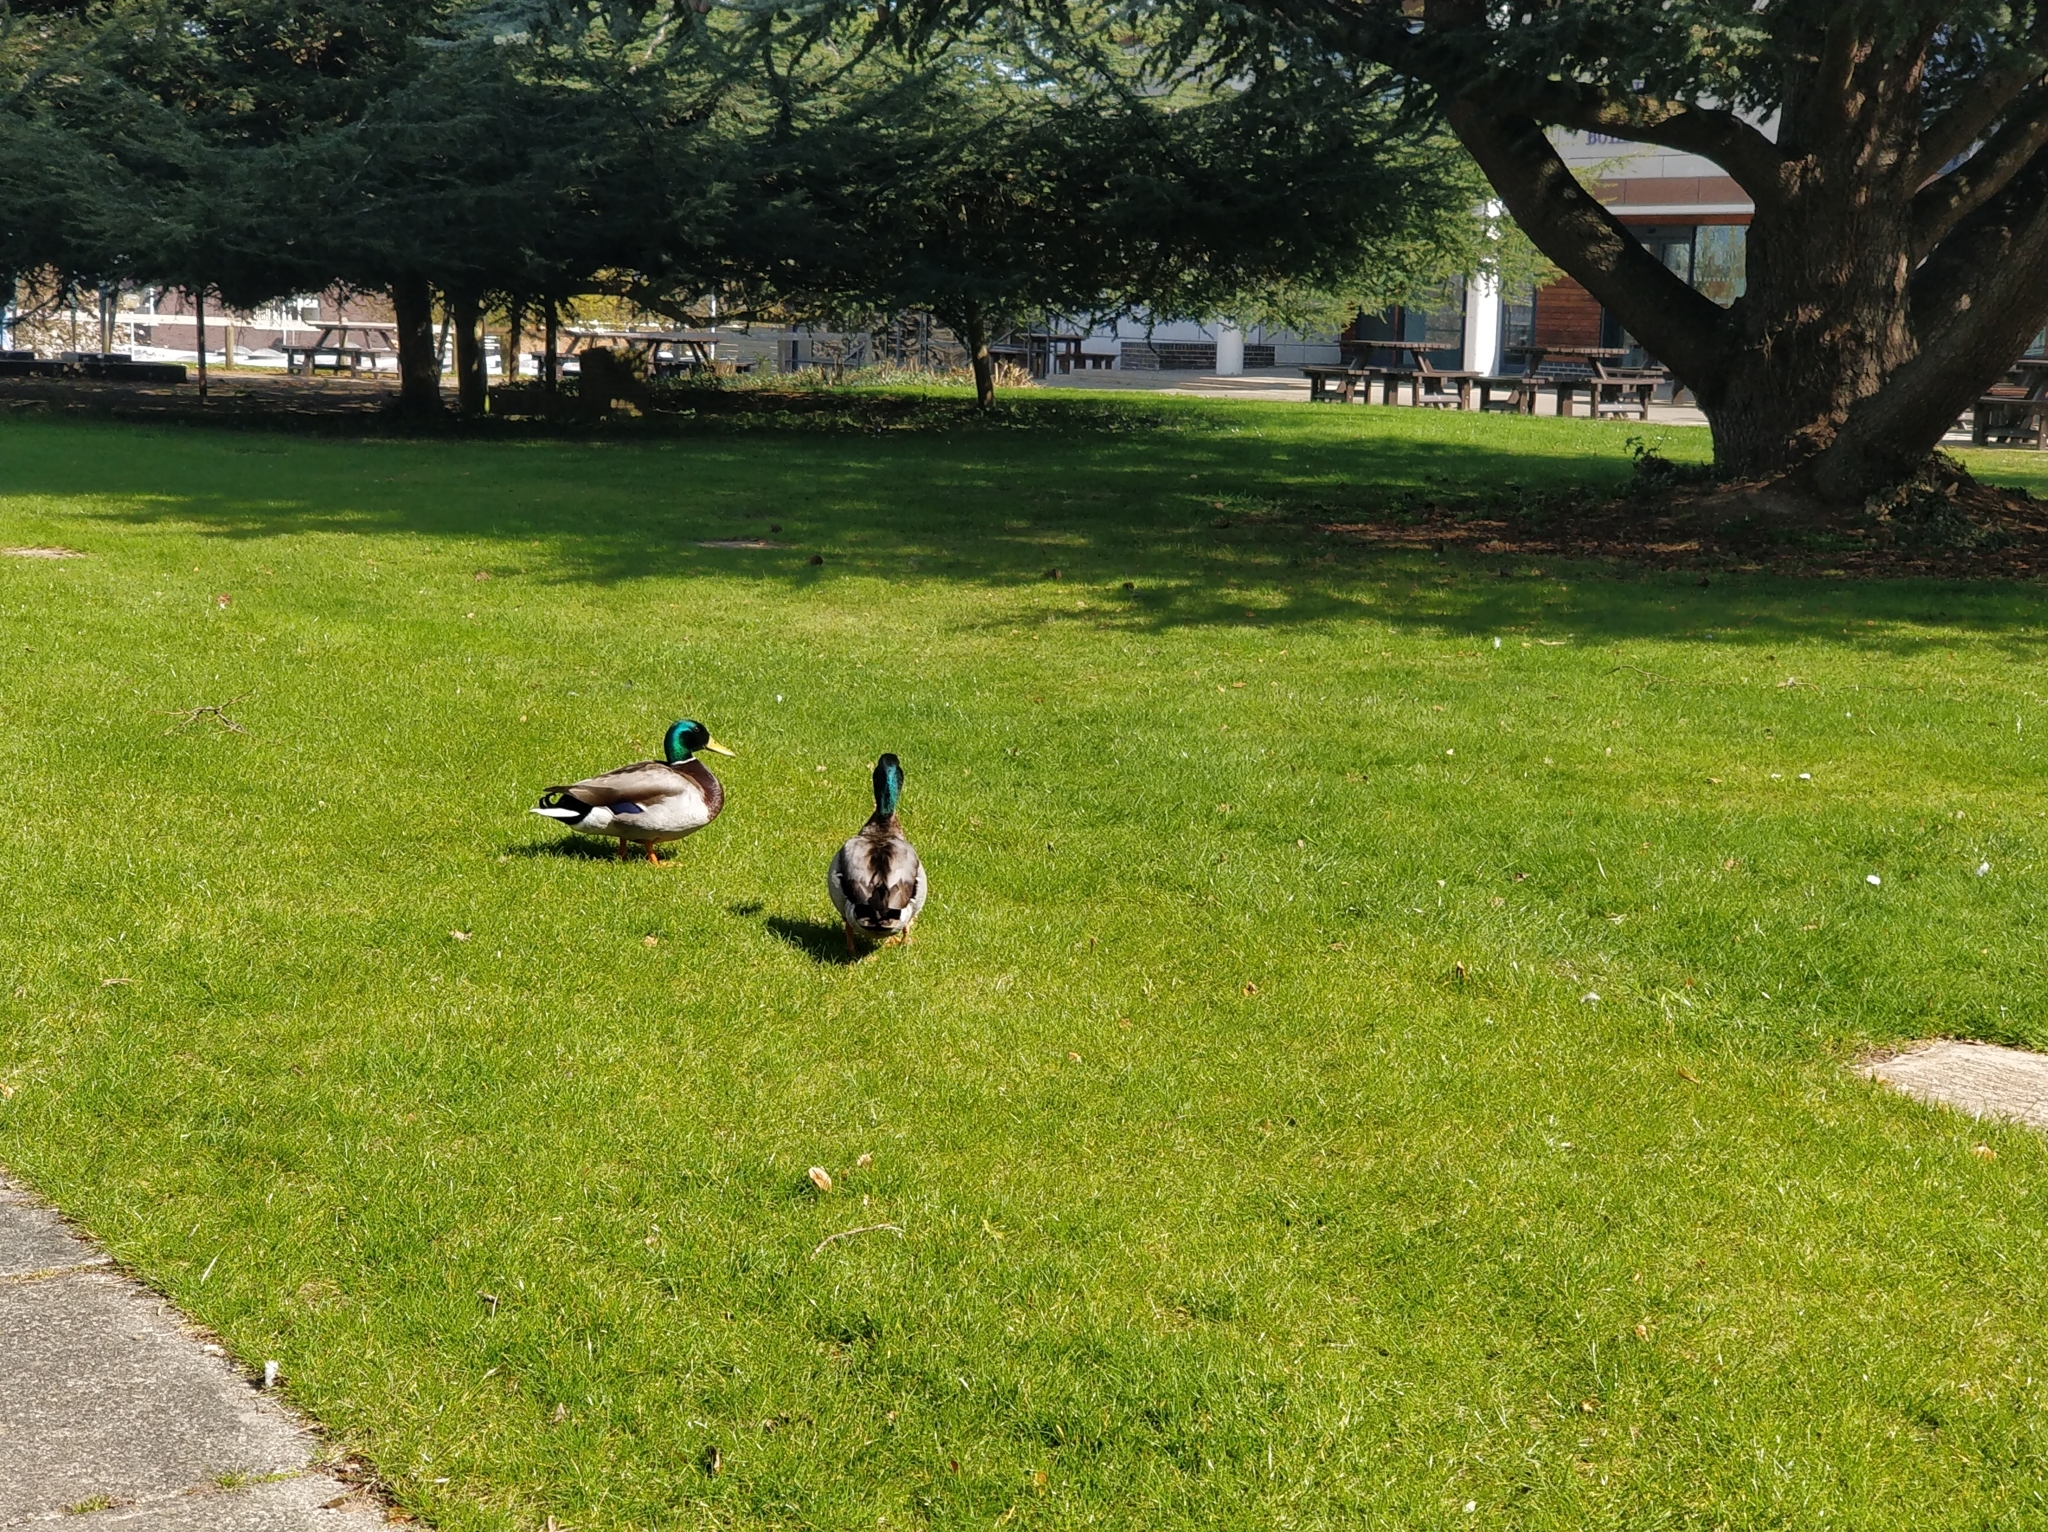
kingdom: Animalia
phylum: Chordata
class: Aves
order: Anseriformes
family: Anatidae
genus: Anas
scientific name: Anas platyrhynchos
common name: Mallard
